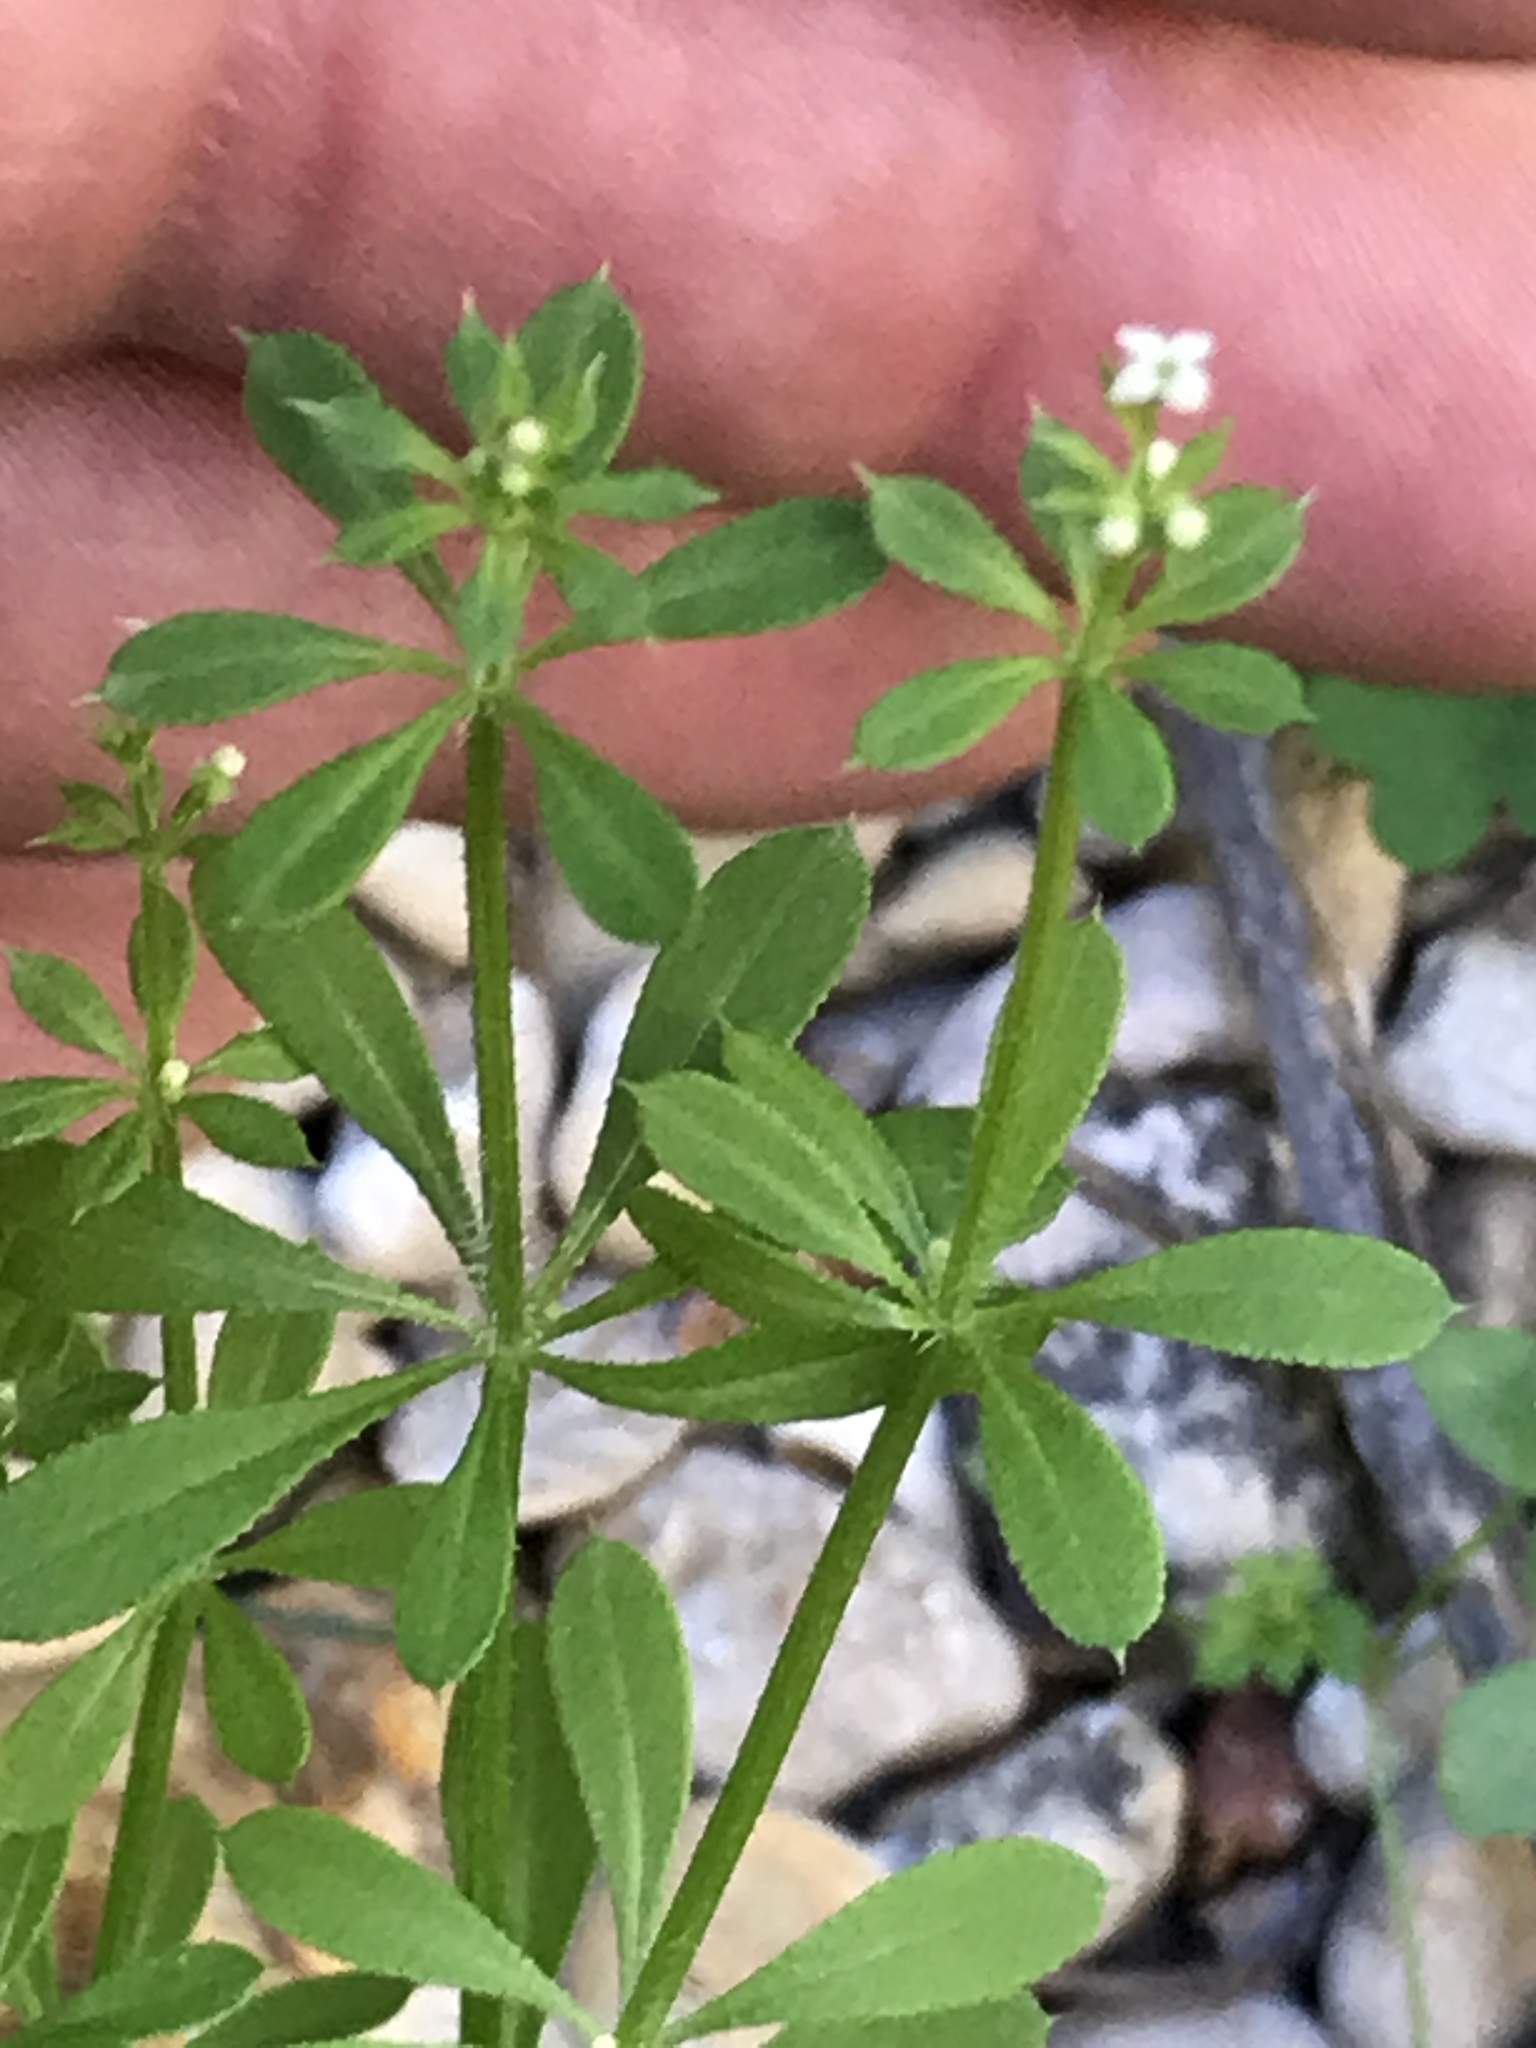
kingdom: Plantae
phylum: Tracheophyta
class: Magnoliopsida
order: Gentianales
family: Rubiaceae
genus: Galium
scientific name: Galium aparine
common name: Cleavers
